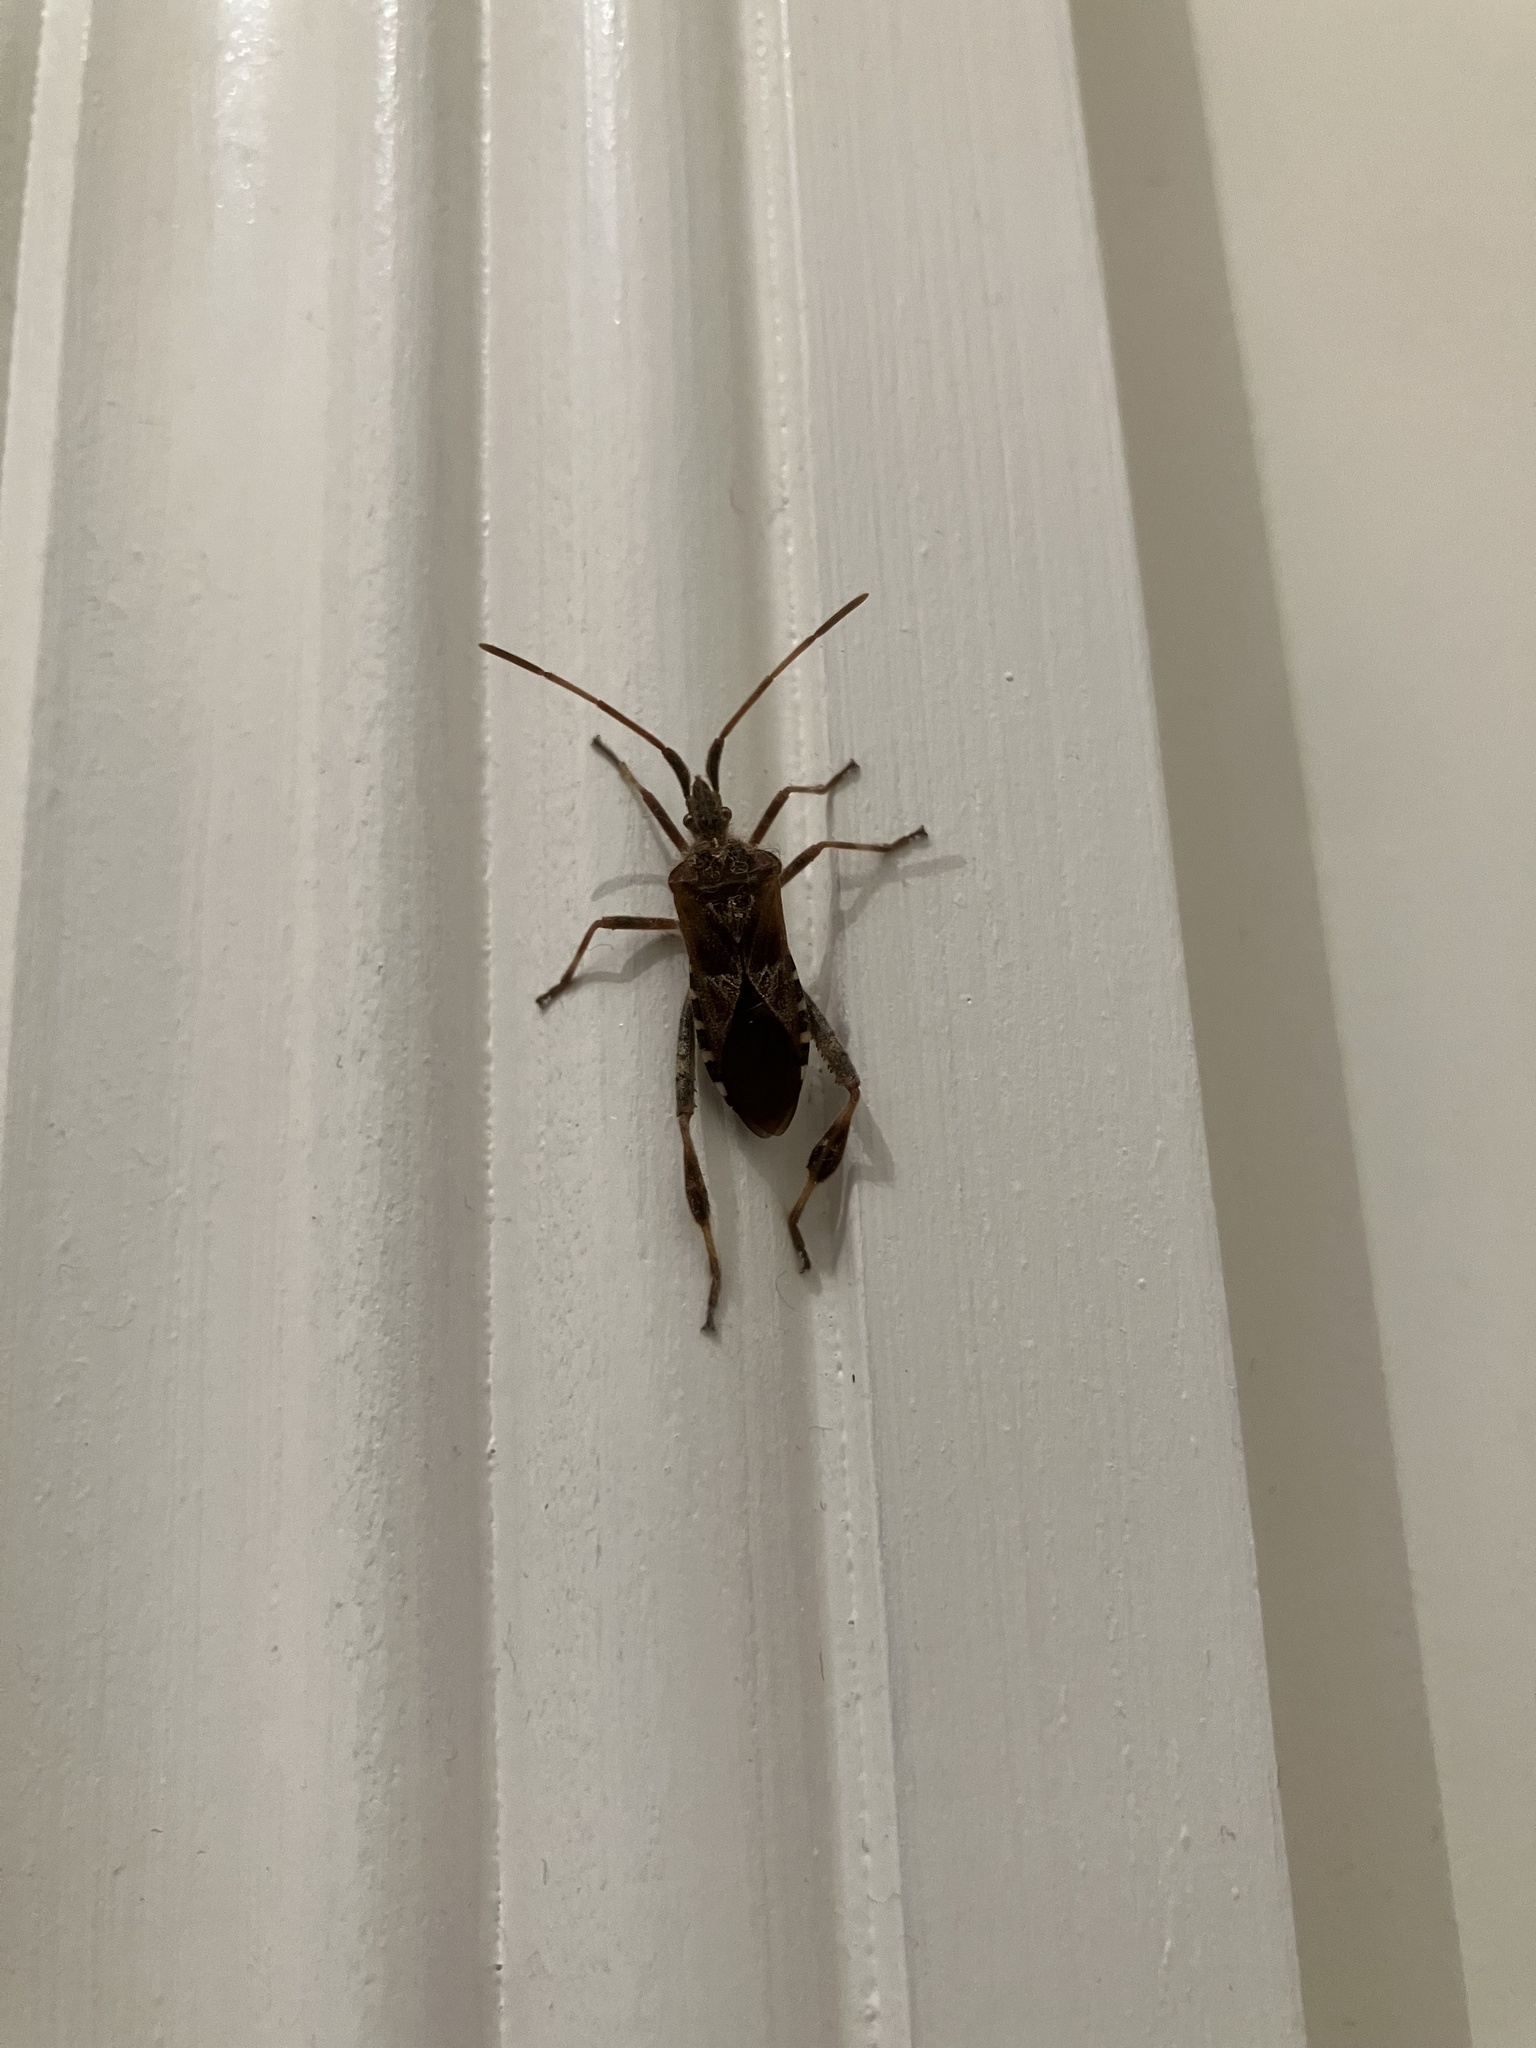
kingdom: Animalia
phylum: Arthropoda
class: Insecta
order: Hemiptera
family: Coreidae
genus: Leptoglossus
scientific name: Leptoglossus occidentalis
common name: Western conifer-seed bug
